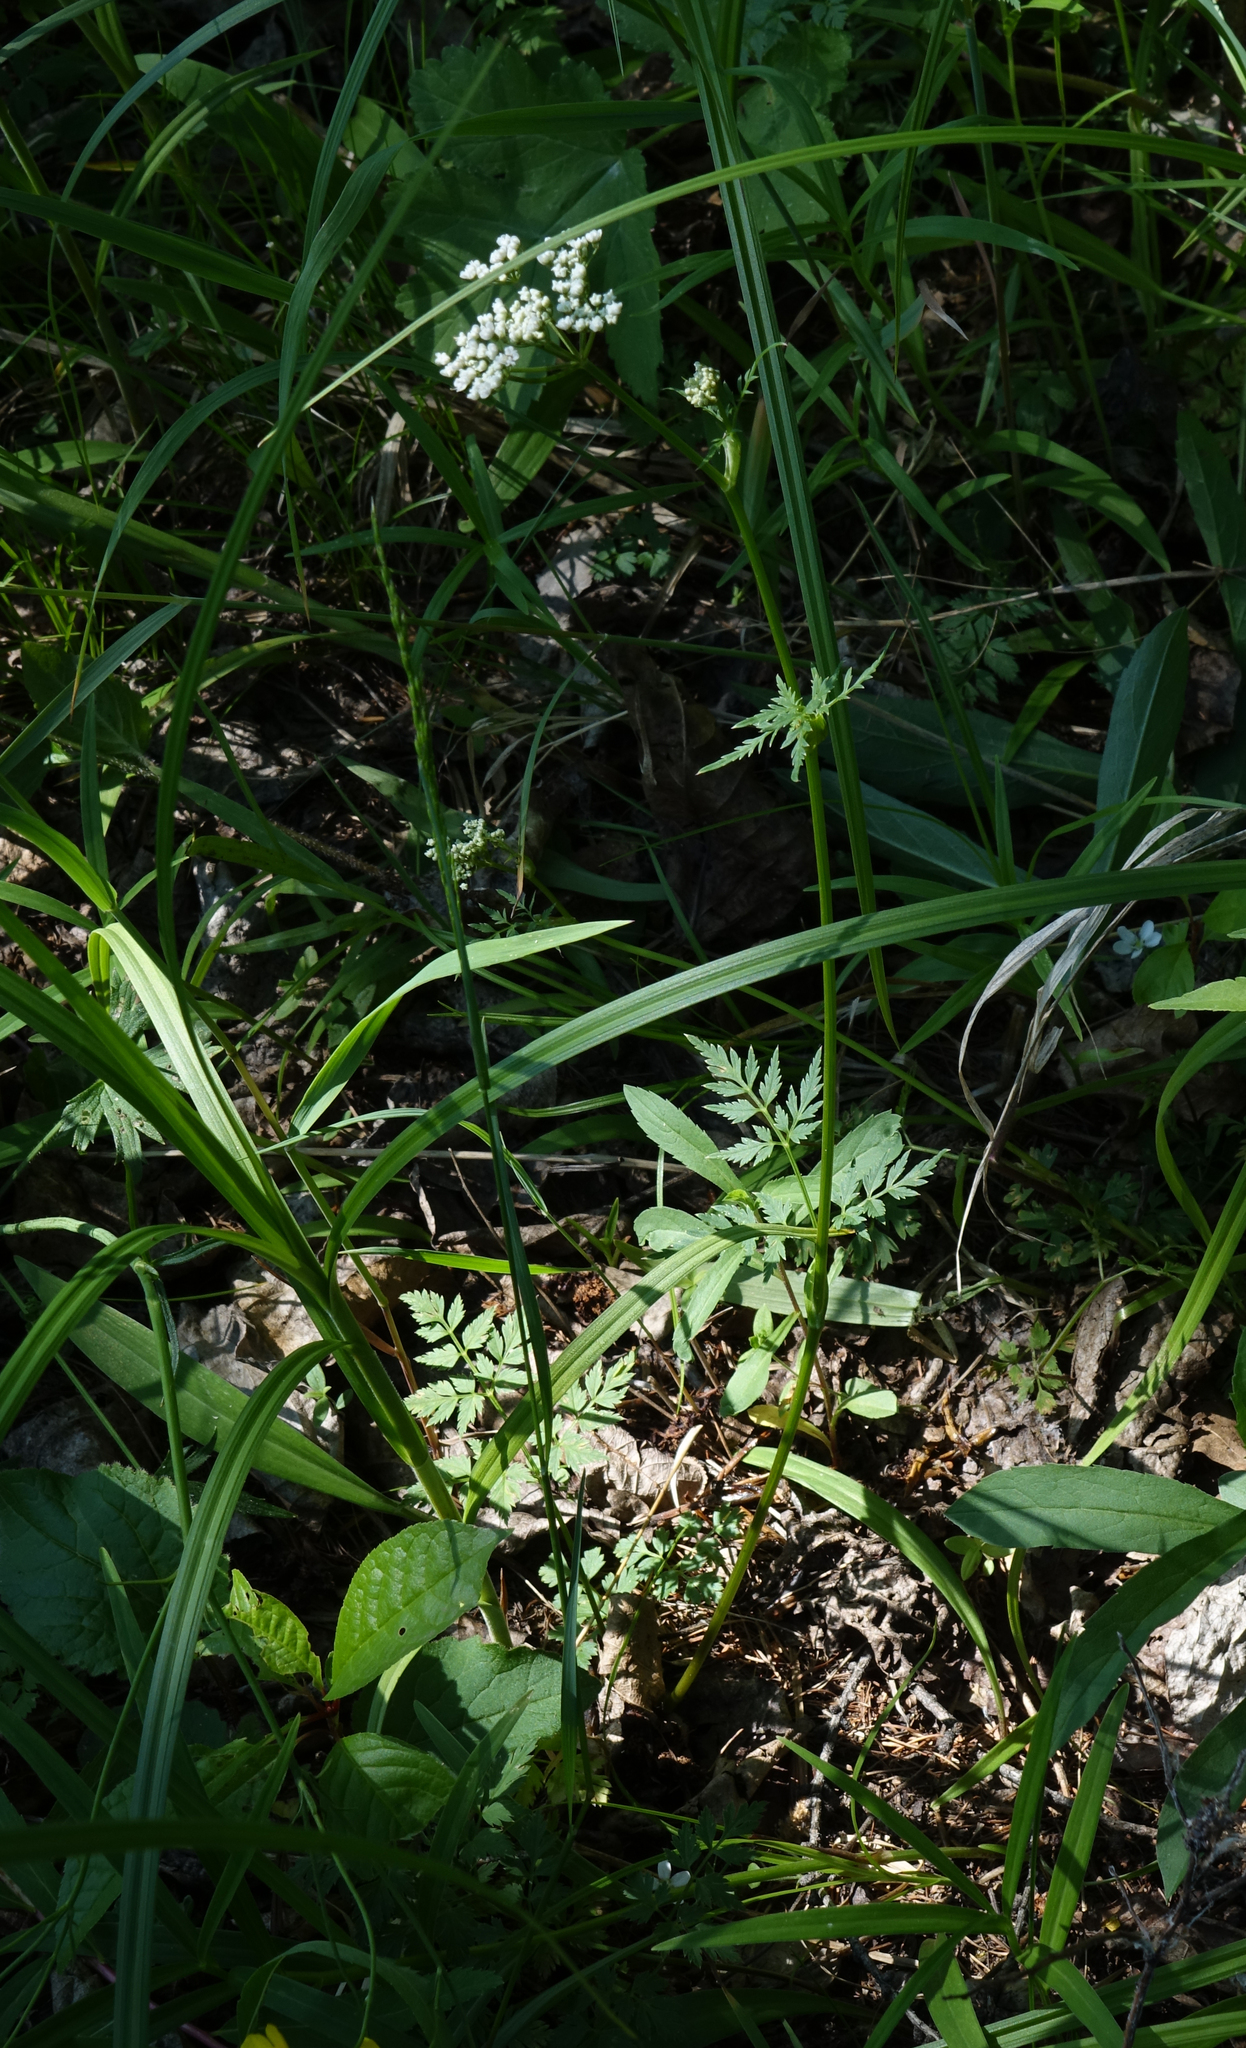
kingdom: Plantae
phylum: Tracheophyta
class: Magnoliopsida
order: Apiales
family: Apiaceae
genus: Aegopodium
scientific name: Aegopodium alpestre
